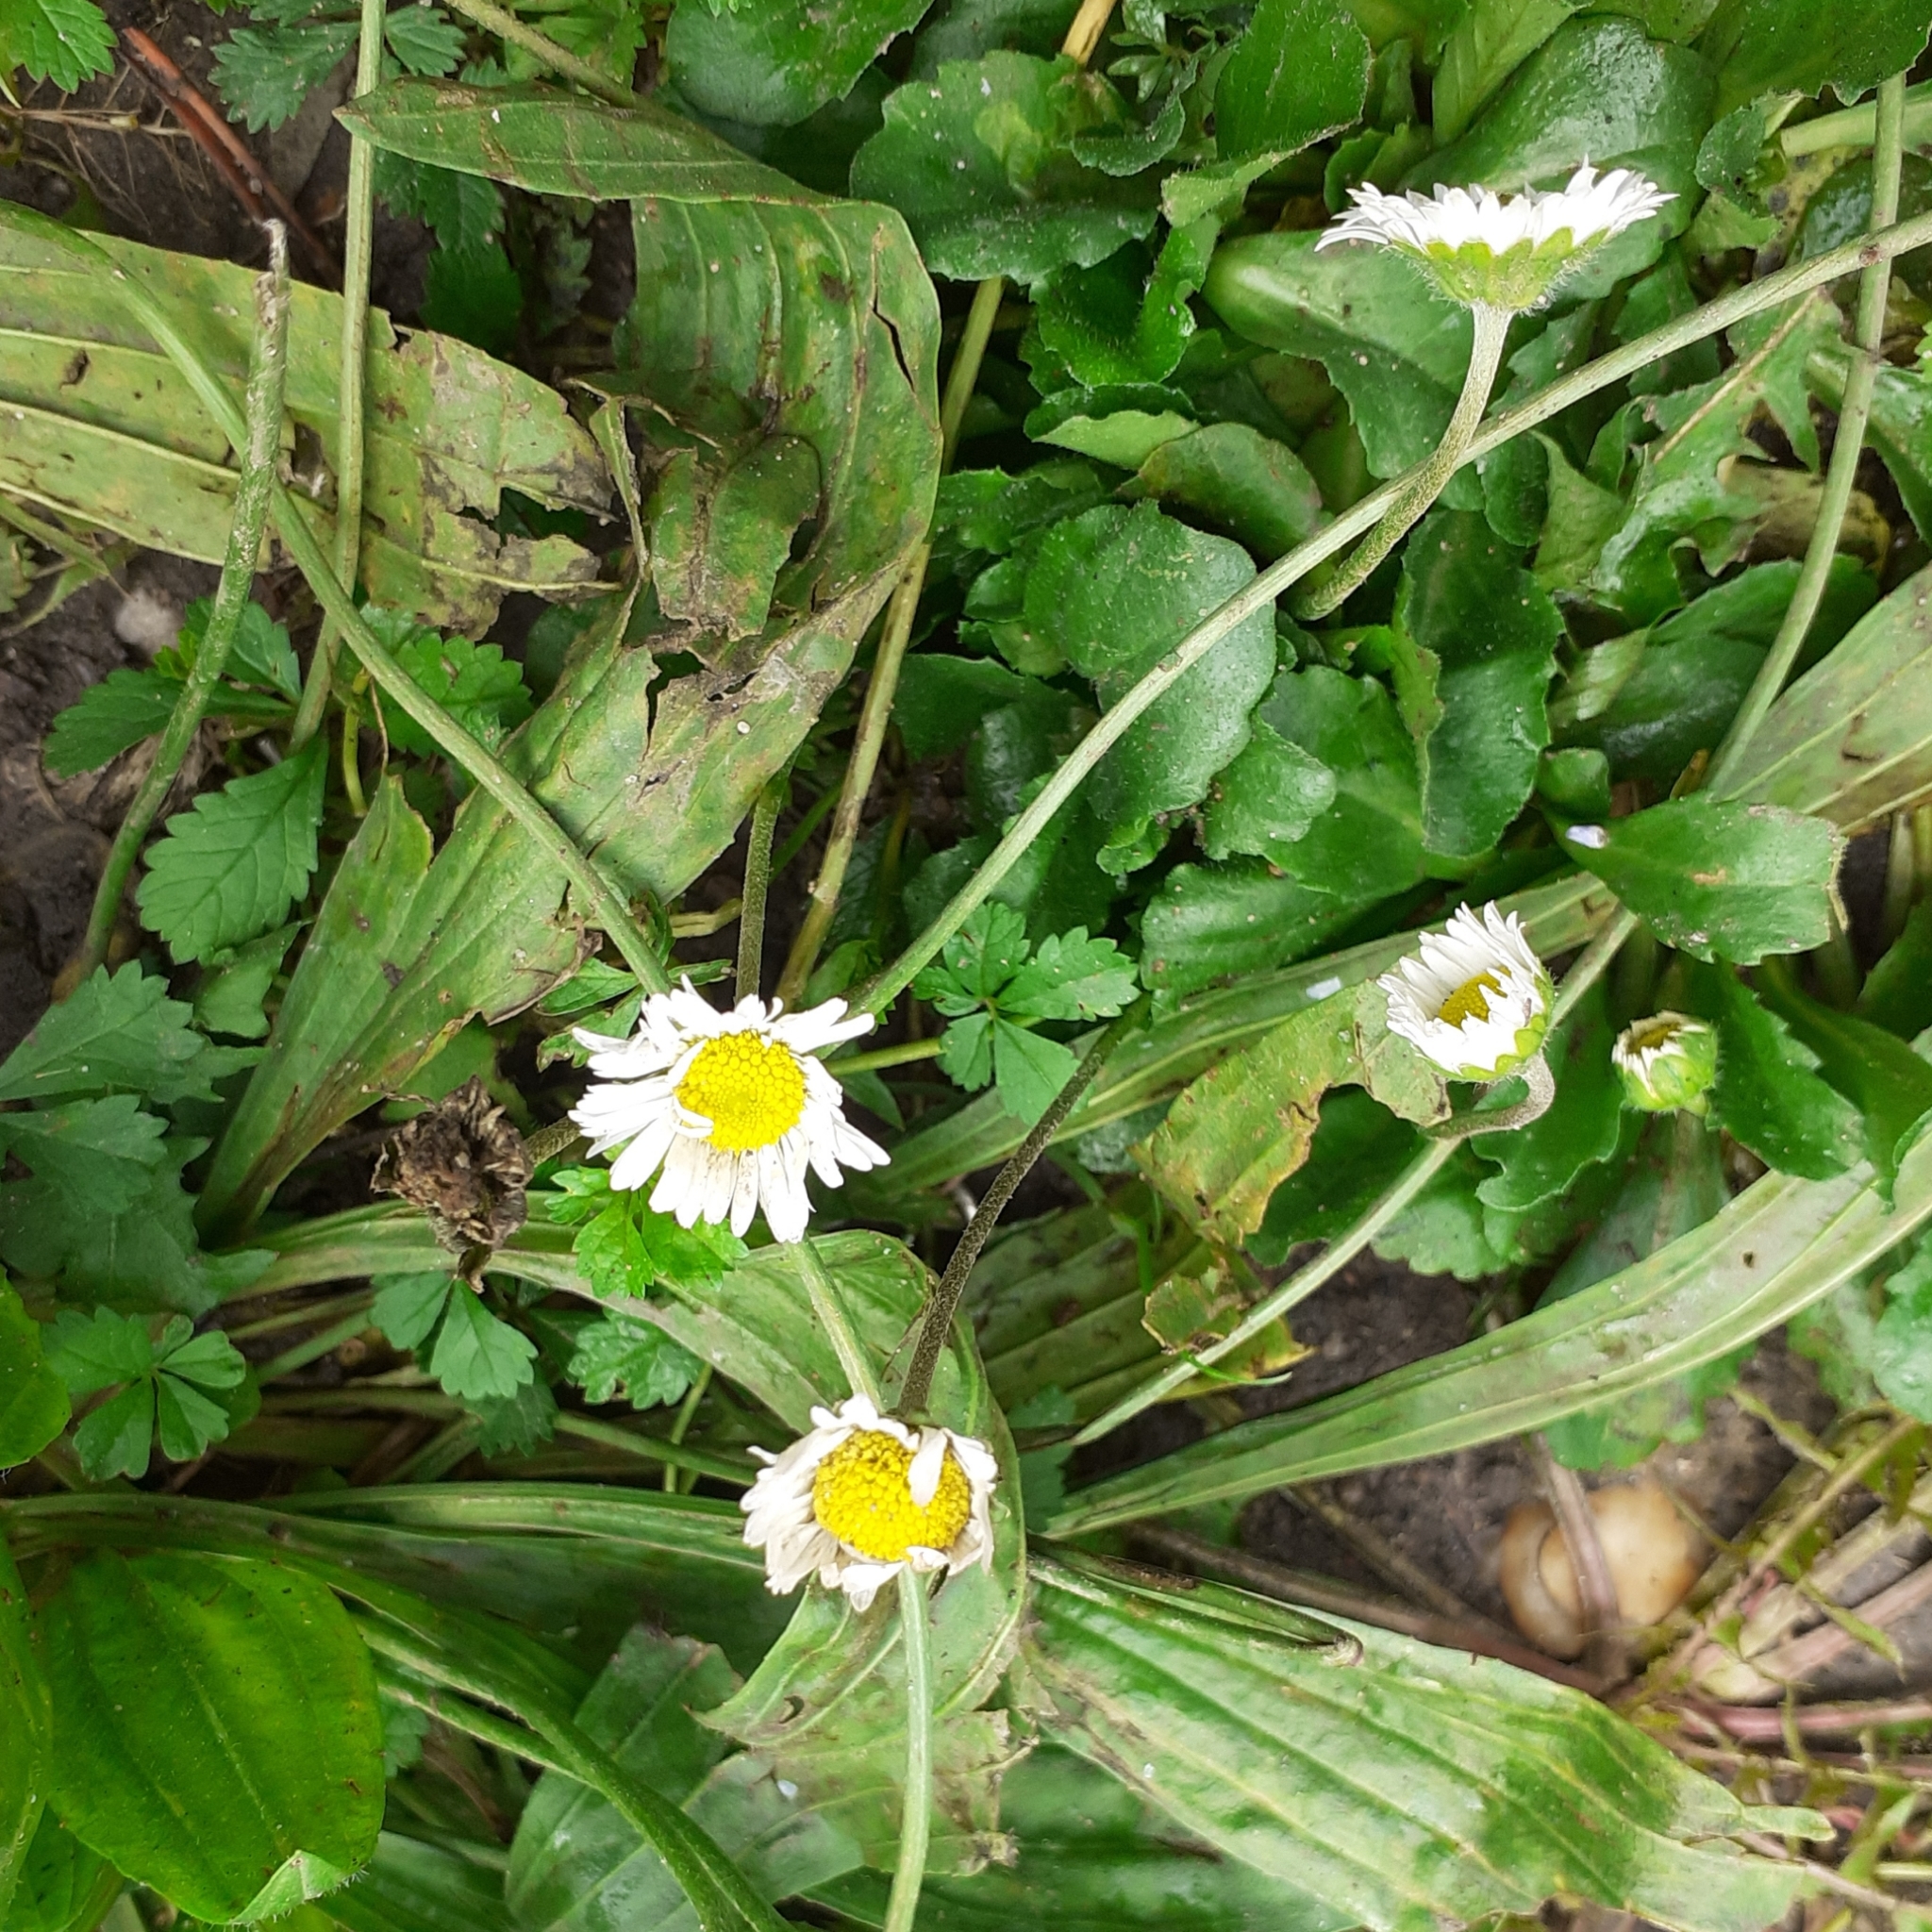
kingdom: Plantae
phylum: Tracheophyta
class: Magnoliopsida
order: Asterales
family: Asteraceae
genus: Bellis
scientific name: Bellis perennis
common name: Lawndaisy
